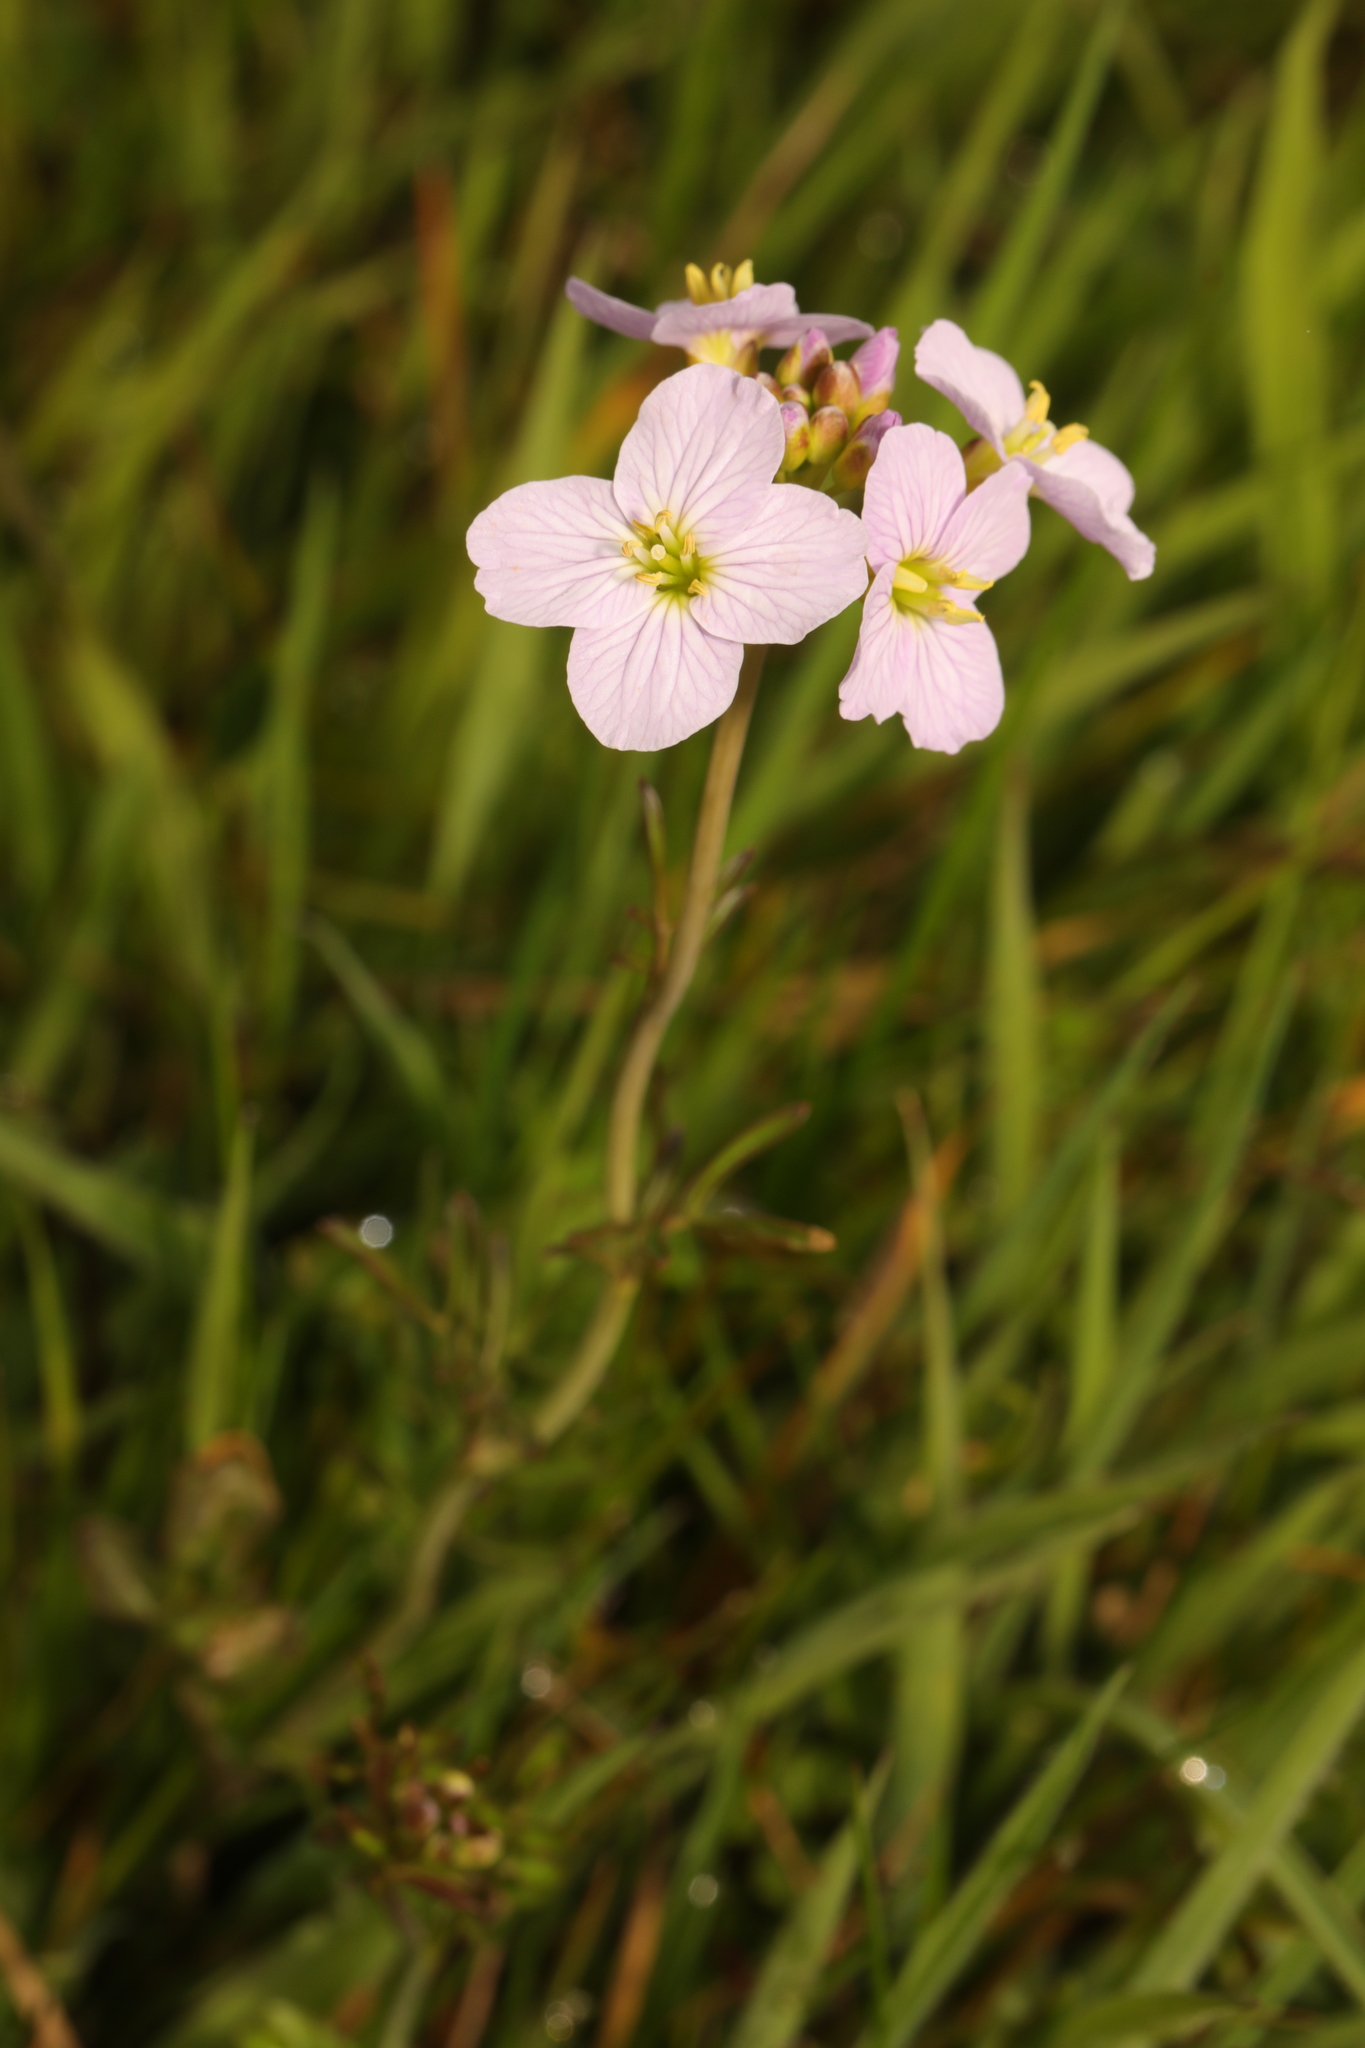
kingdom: Plantae
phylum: Tracheophyta
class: Magnoliopsida
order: Brassicales
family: Brassicaceae
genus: Cardamine
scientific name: Cardamine pratensis
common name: Cuckoo flower
